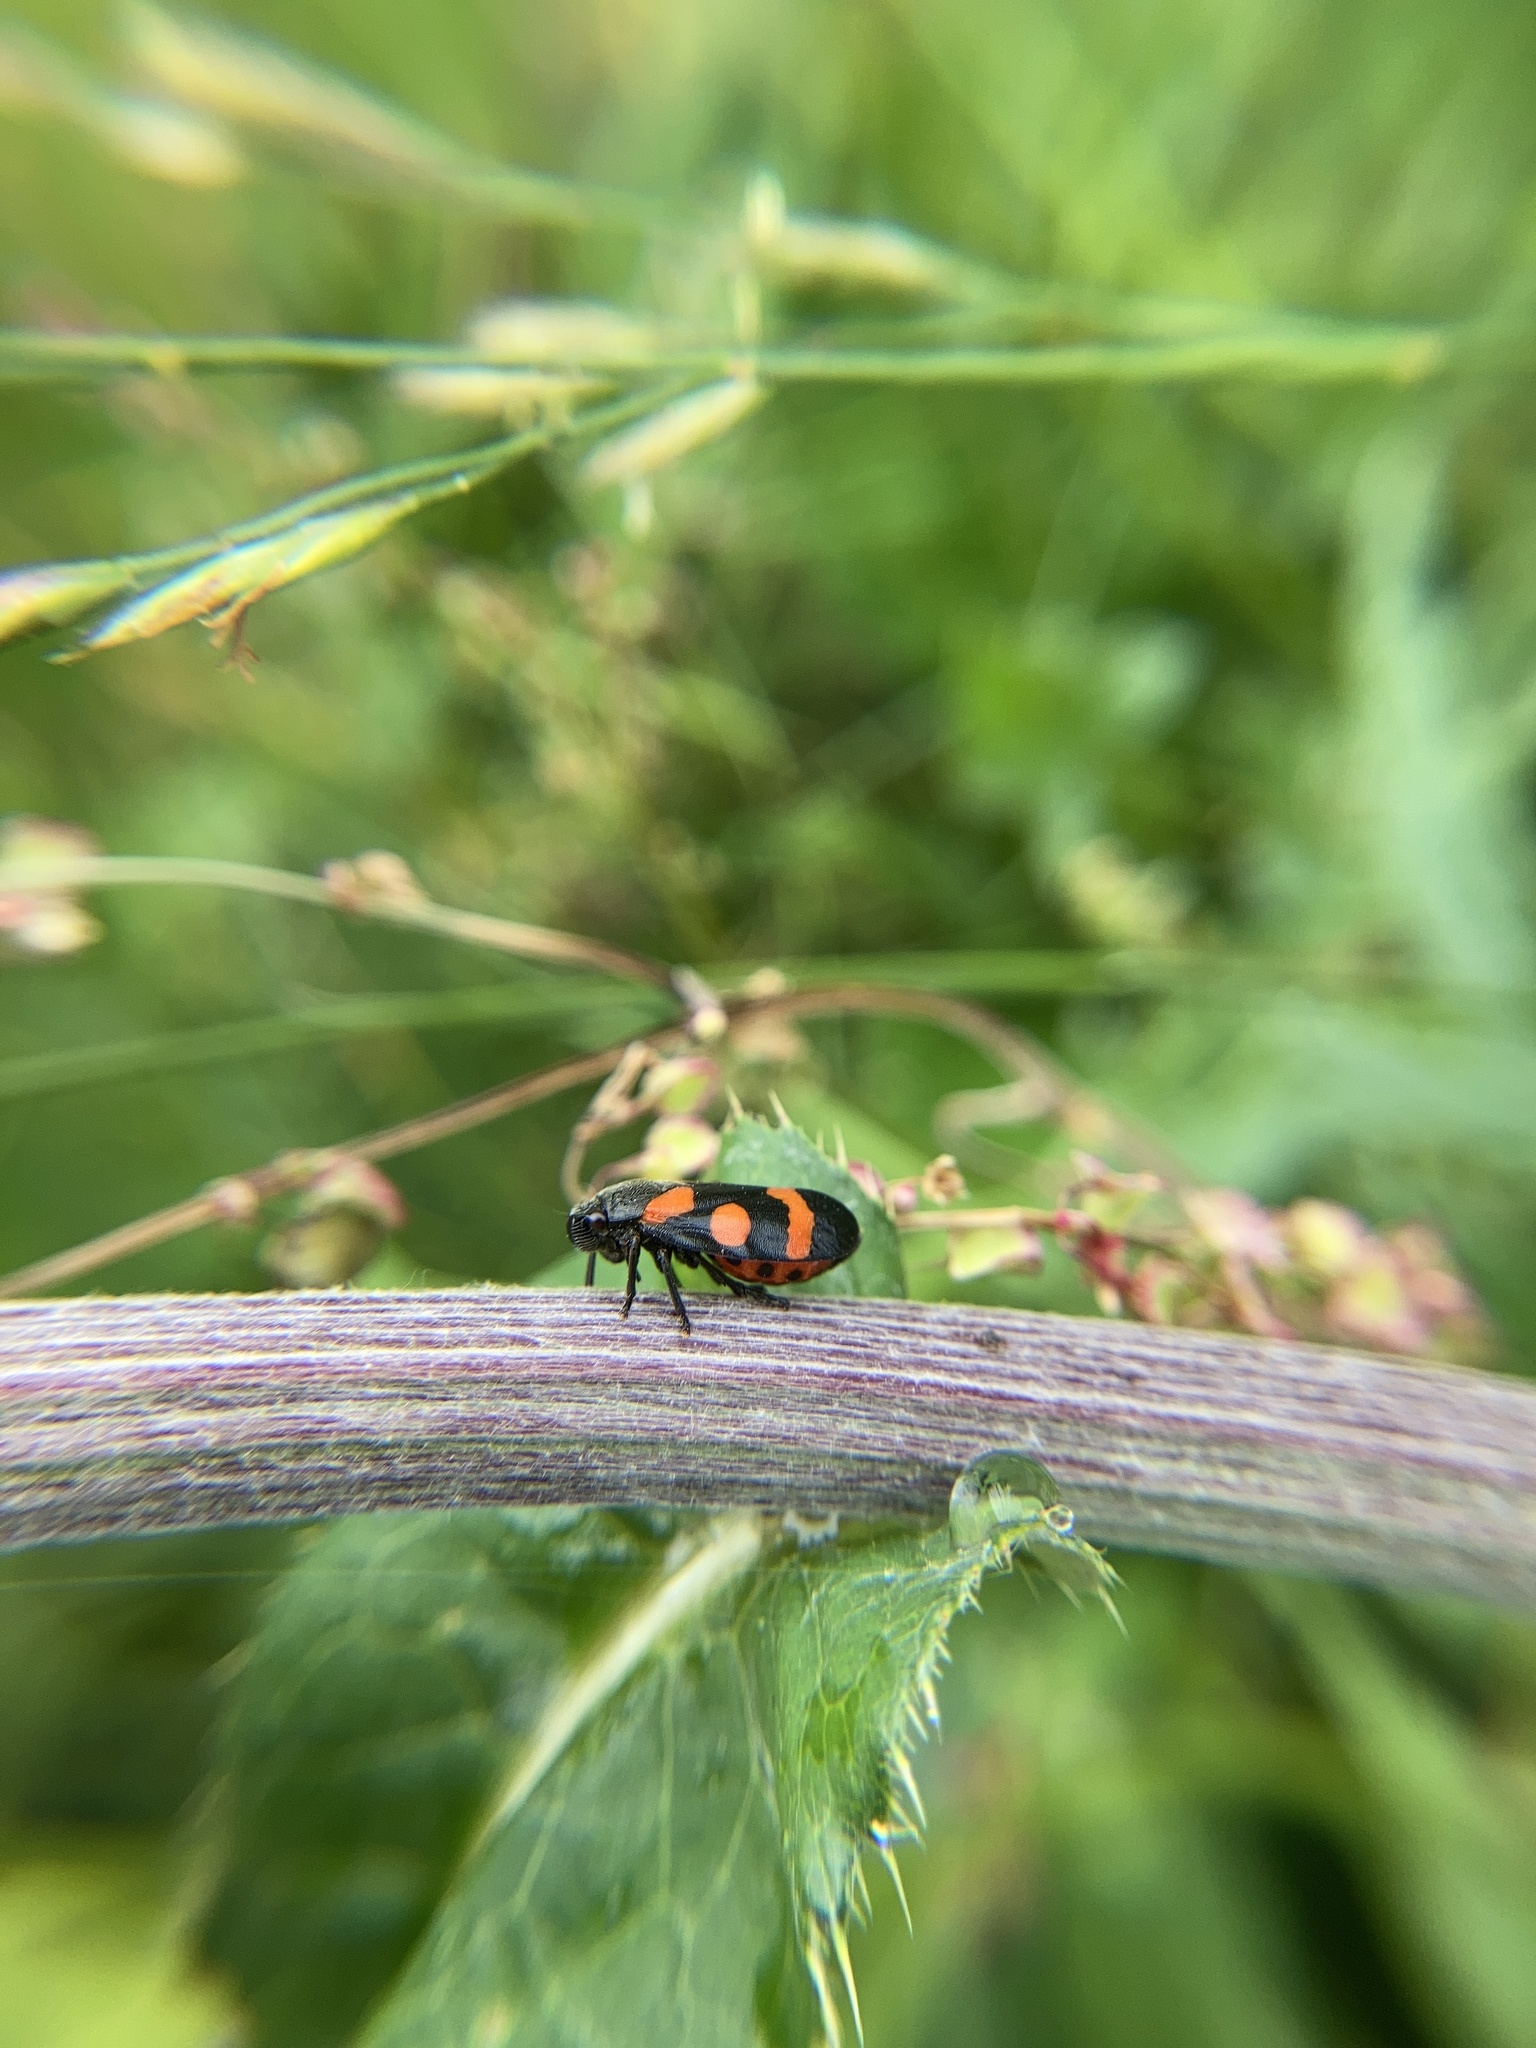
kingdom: Animalia
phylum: Arthropoda
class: Insecta
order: Hemiptera
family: Cercopidae
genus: Cercopis
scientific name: Cercopis sanguinolenta
